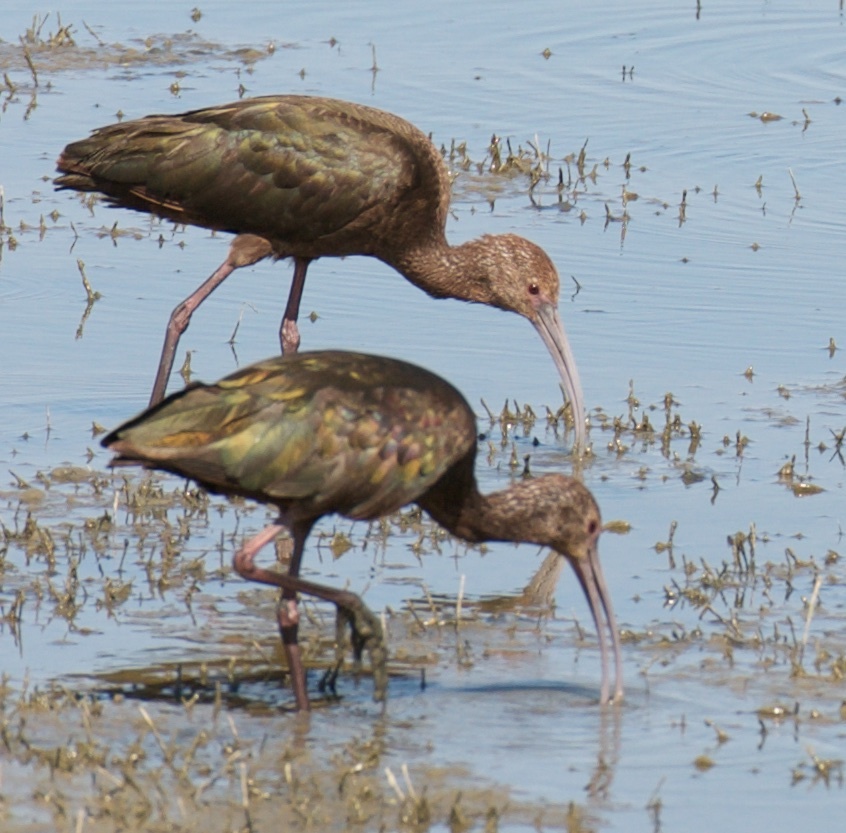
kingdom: Animalia
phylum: Chordata
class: Aves
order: Pelecaniformes
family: Threskiornithidae
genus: Plegadis
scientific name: Plegadis chihi
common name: White-faced ibis
